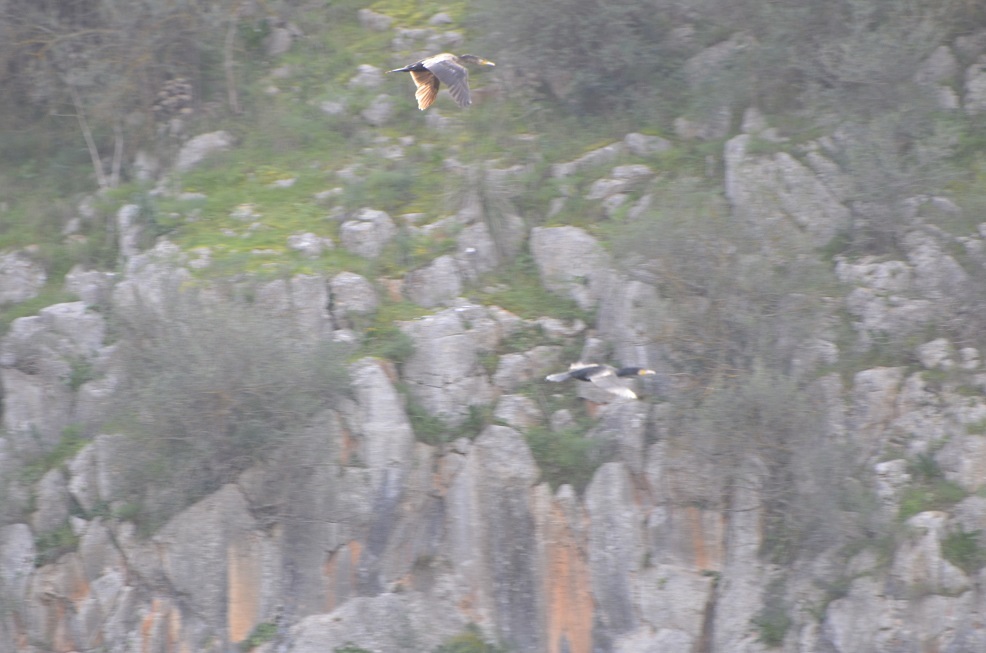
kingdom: Animalia
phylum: Chordata
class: Aves
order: Suliformes
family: Phalacrocoracidae
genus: Phalacrocorax
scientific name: Phalacrocorax carbo
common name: Great cormorant
